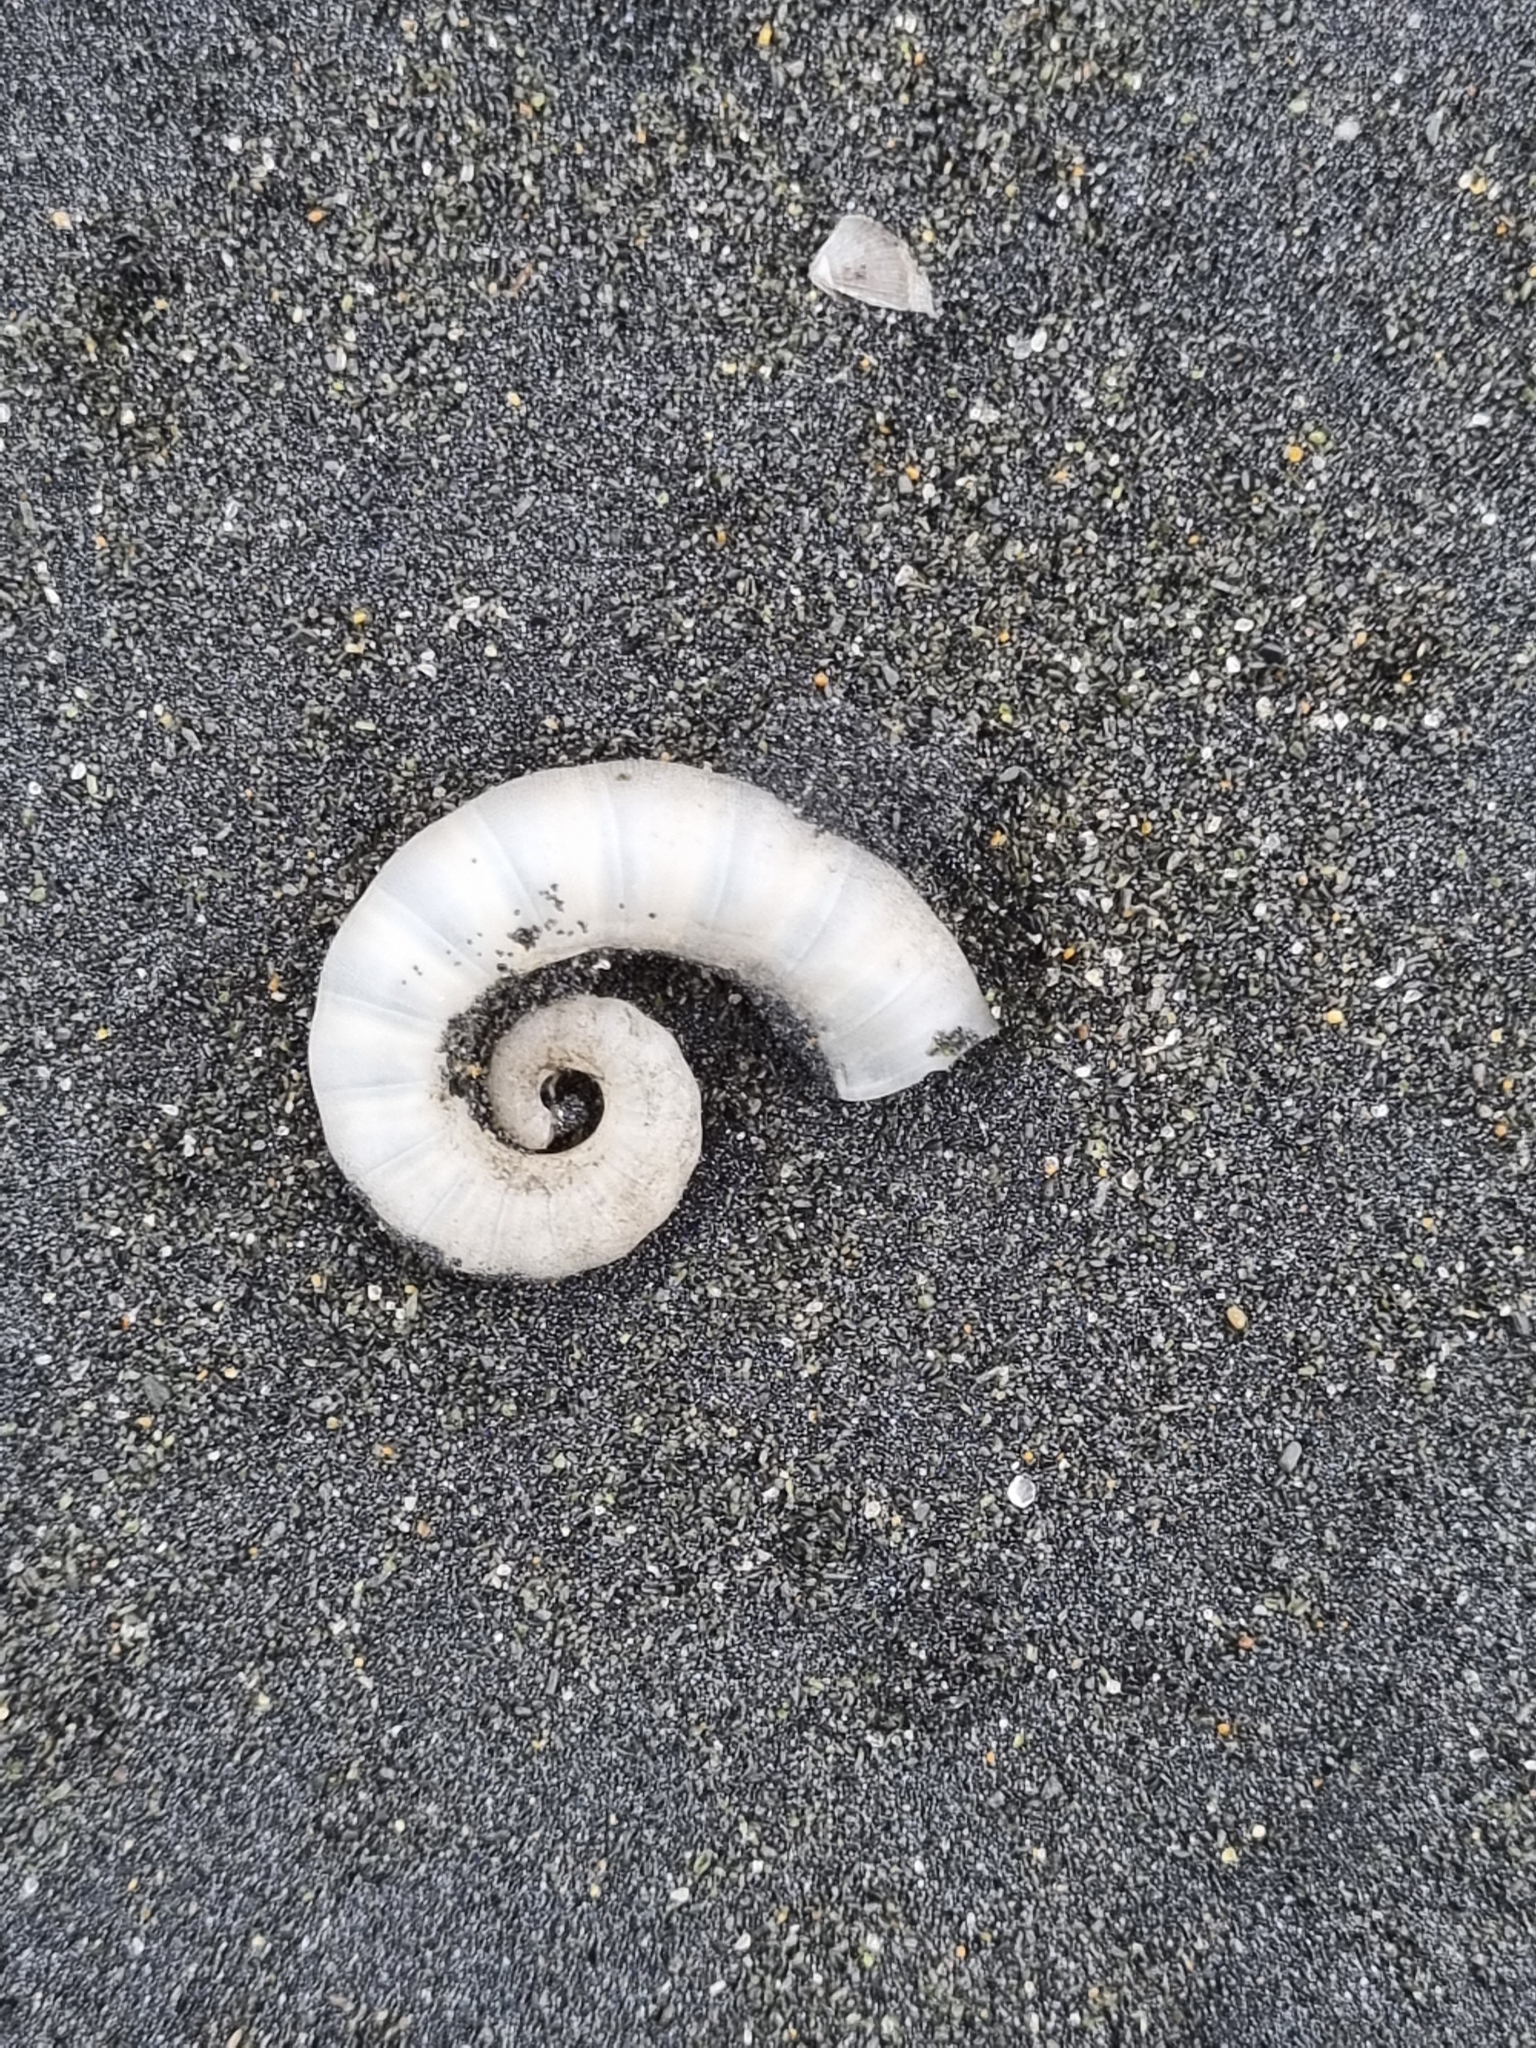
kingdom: Animalia
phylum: Mollusca
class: Cephalopoda
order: Spirulida
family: Spirulidae
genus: Spirula
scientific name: Spirula spirula
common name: Ram's horn squid
